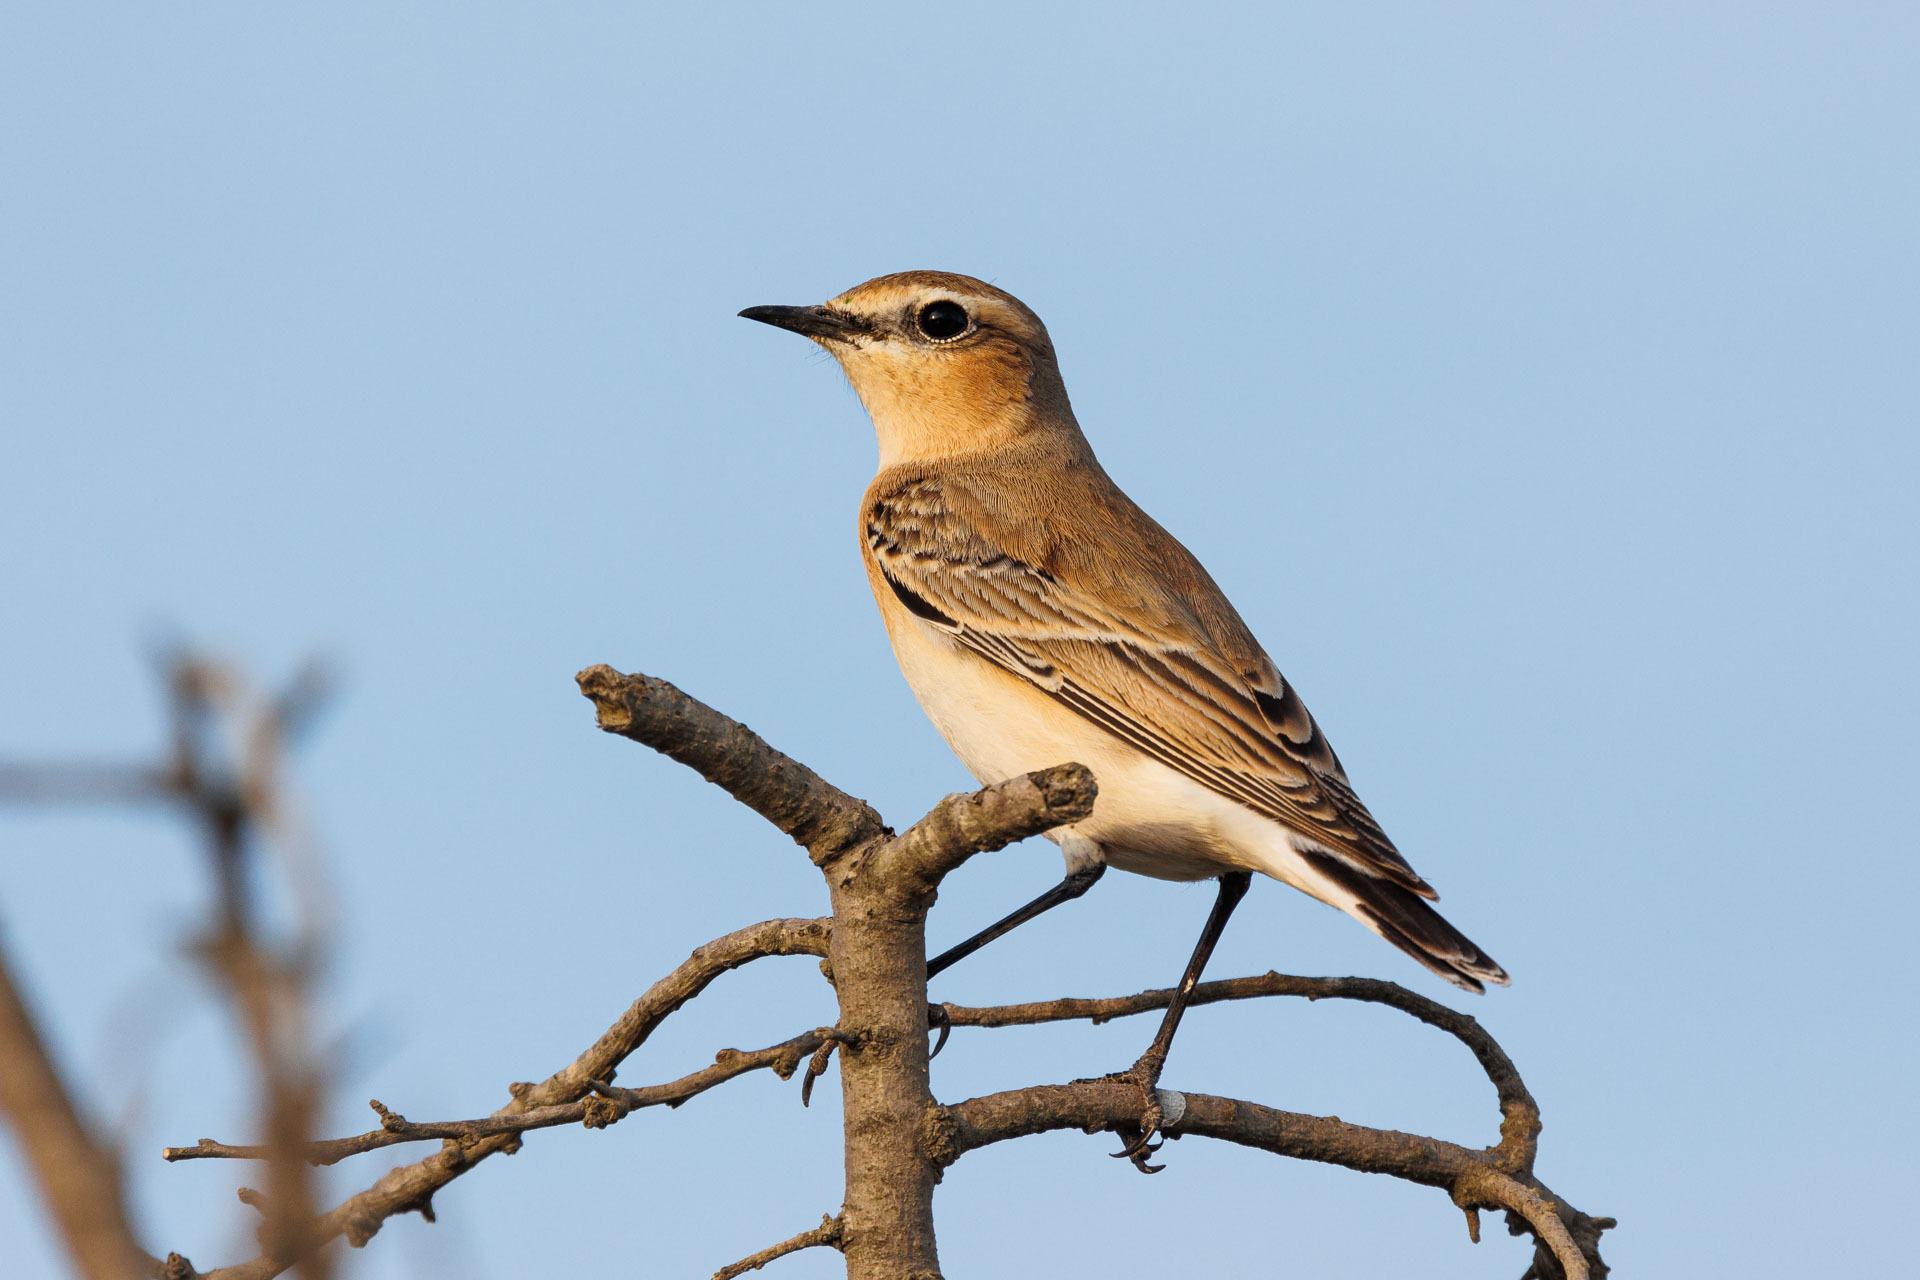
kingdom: Animalia
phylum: Chordata
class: Aves
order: Passeriformes
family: Muscicapidae
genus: Oenanthe
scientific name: Oenanthe isabellina
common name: Isabelline wheatear
